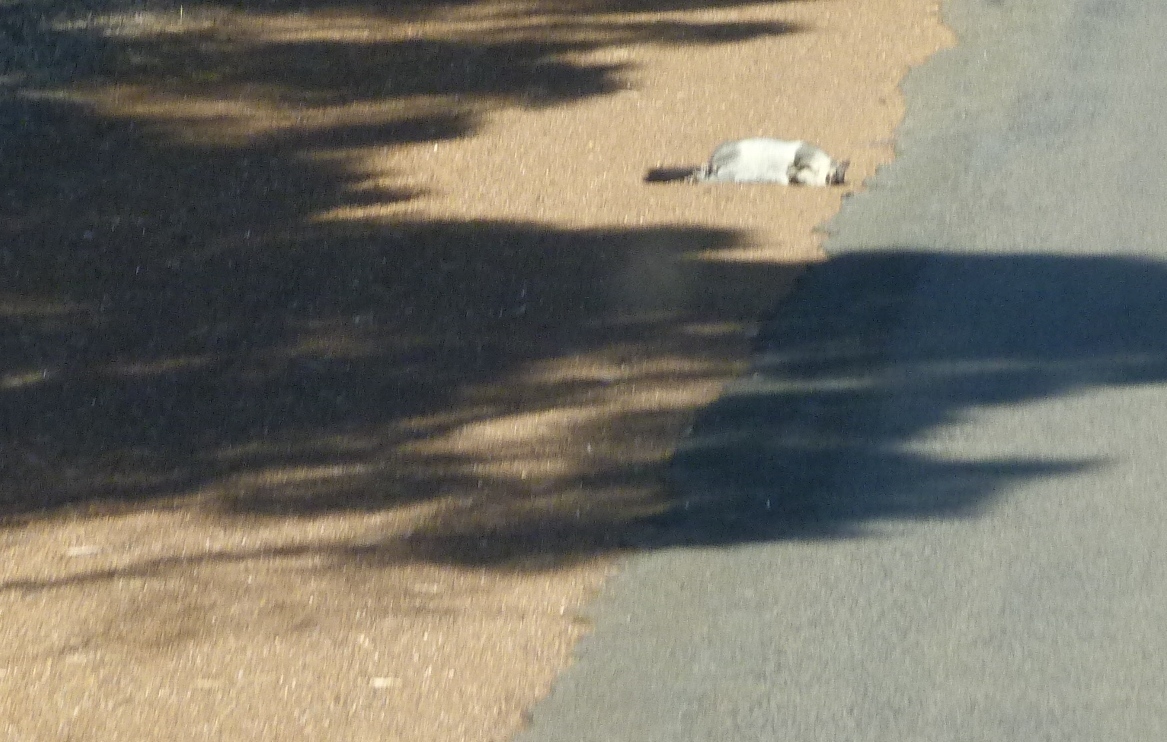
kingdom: Animalia
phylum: Chordata
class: Mammalia
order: Diprotodontia
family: Phalangeridae
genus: Trichosurus
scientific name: Trichosurus vulpecula
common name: Common brushtail
